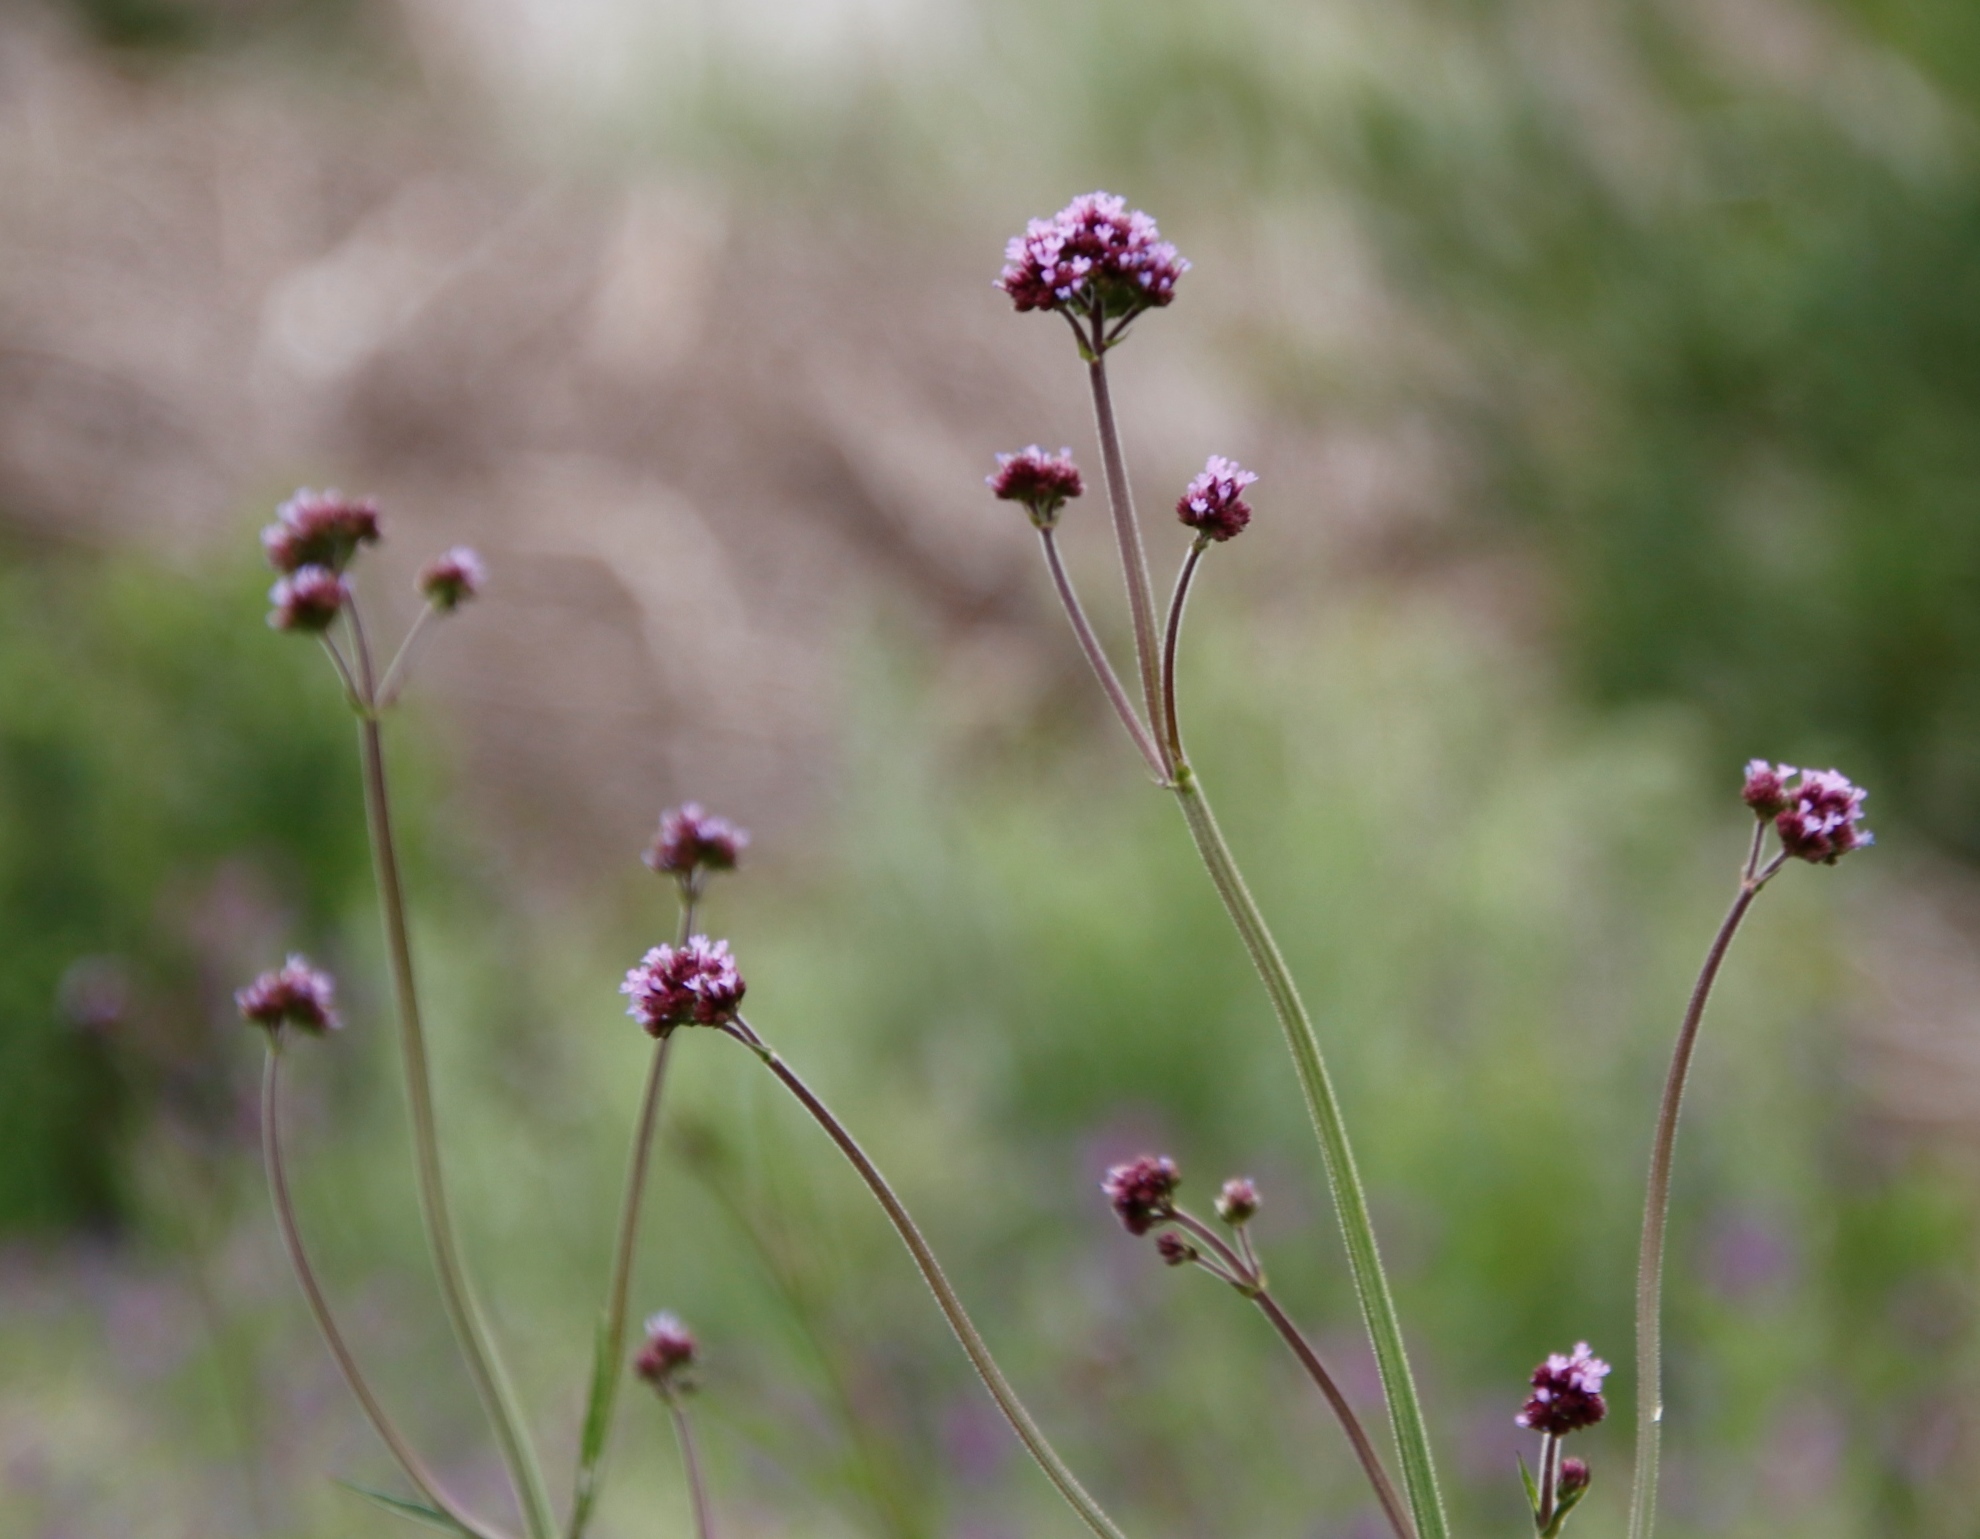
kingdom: Plantae
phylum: Tracheophyta
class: Magnoliopsida
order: Lamiales
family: Verbenaceae
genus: Verbena
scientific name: Verbena bonariensis
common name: Purpletop vervain
